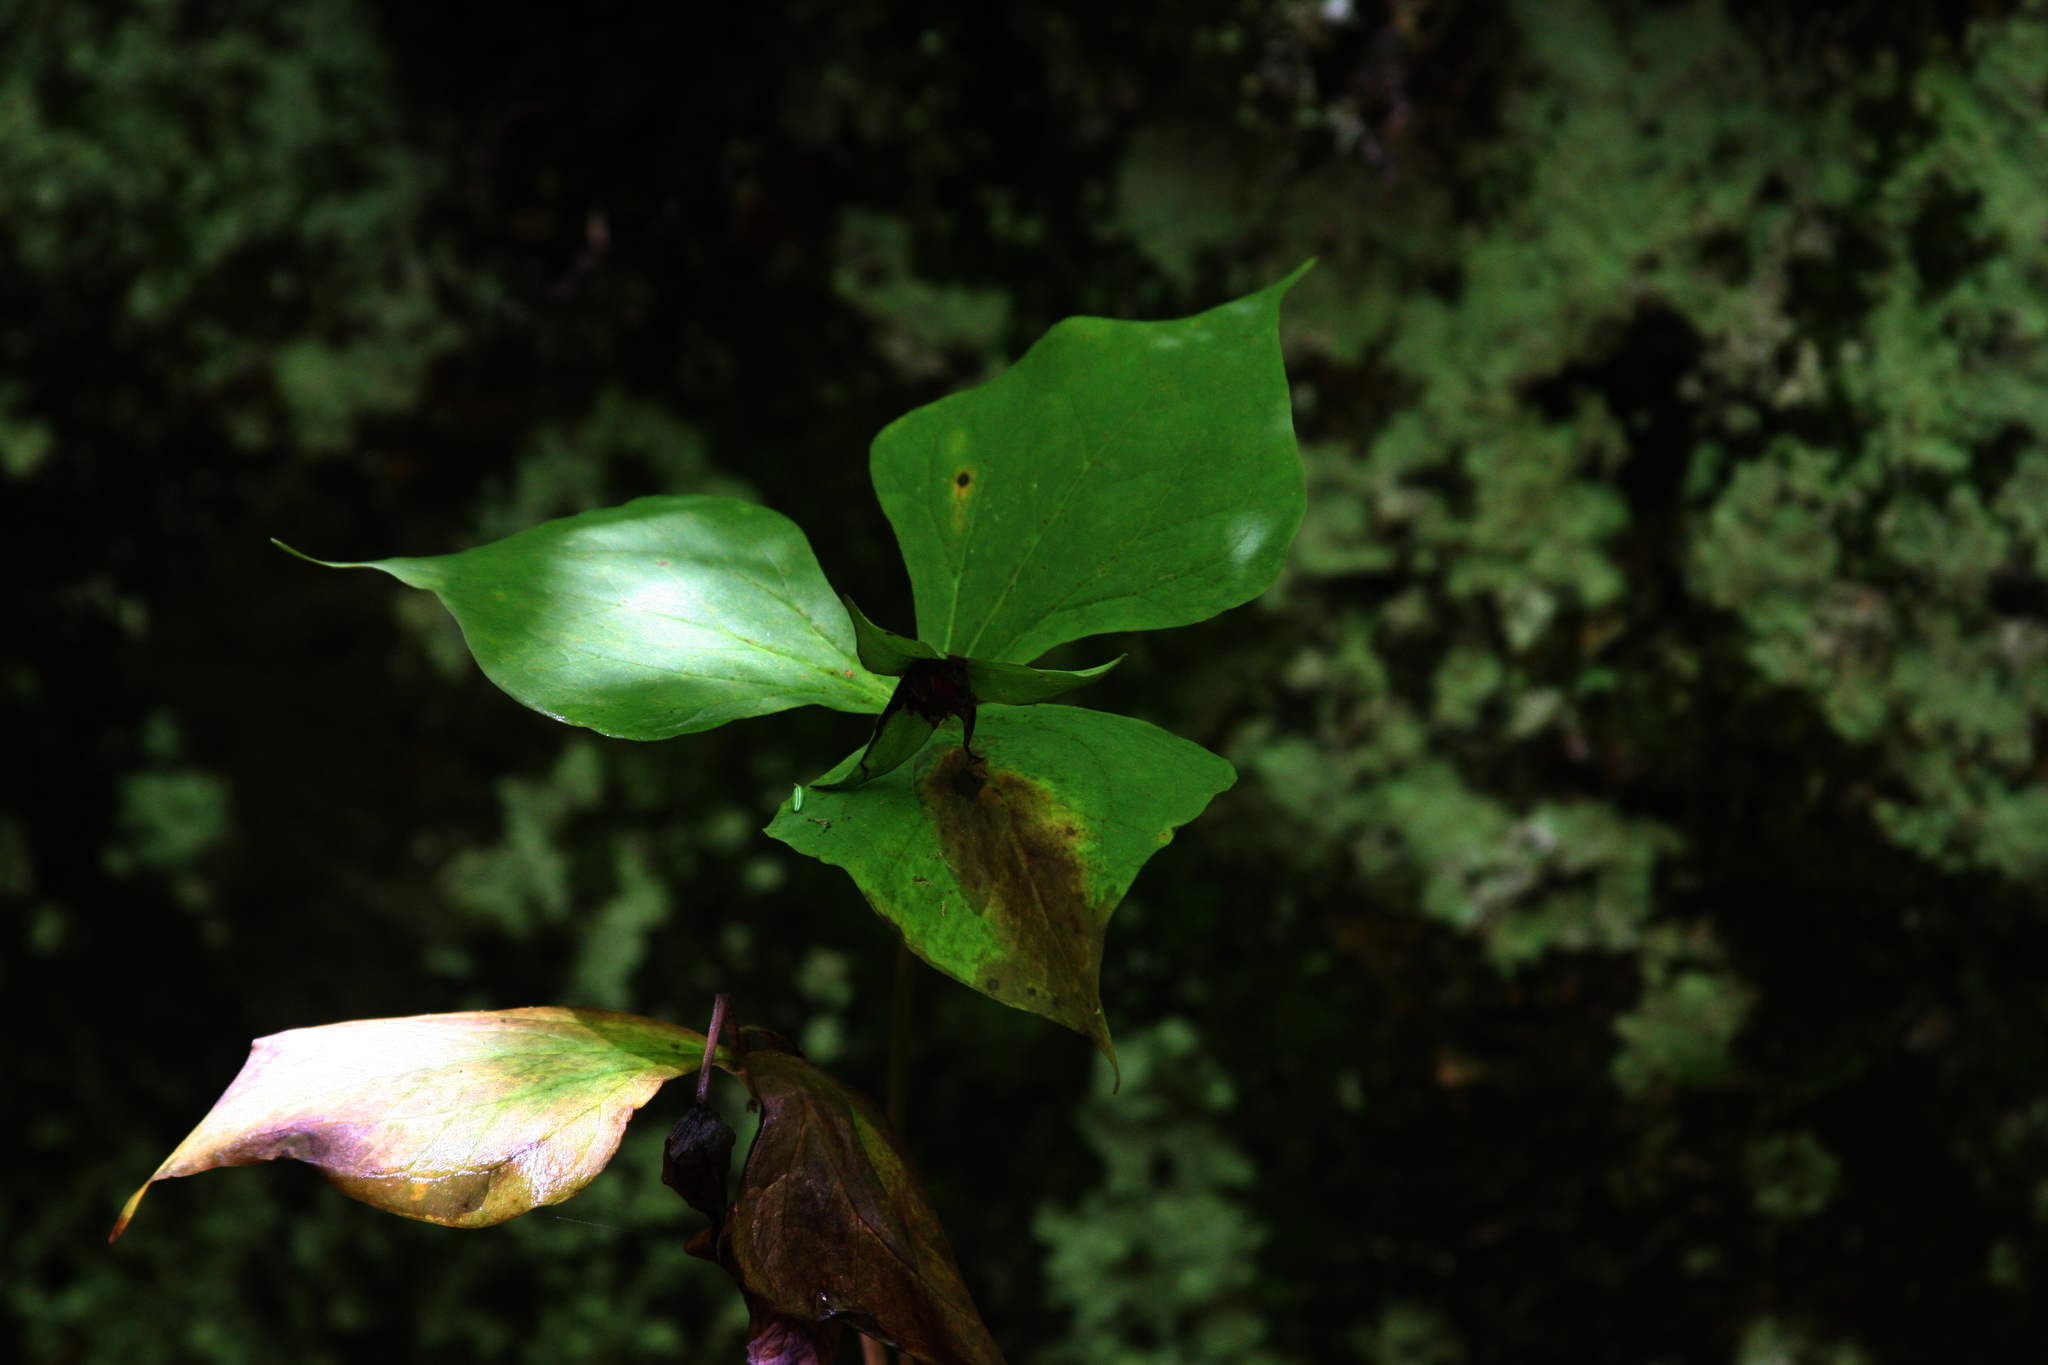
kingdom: Plantae
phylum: Tracheophyta
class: Liliopsida
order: Liliales
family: Melanthiaceae
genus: Trillium
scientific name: Trillium erectum
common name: Purple trillium
